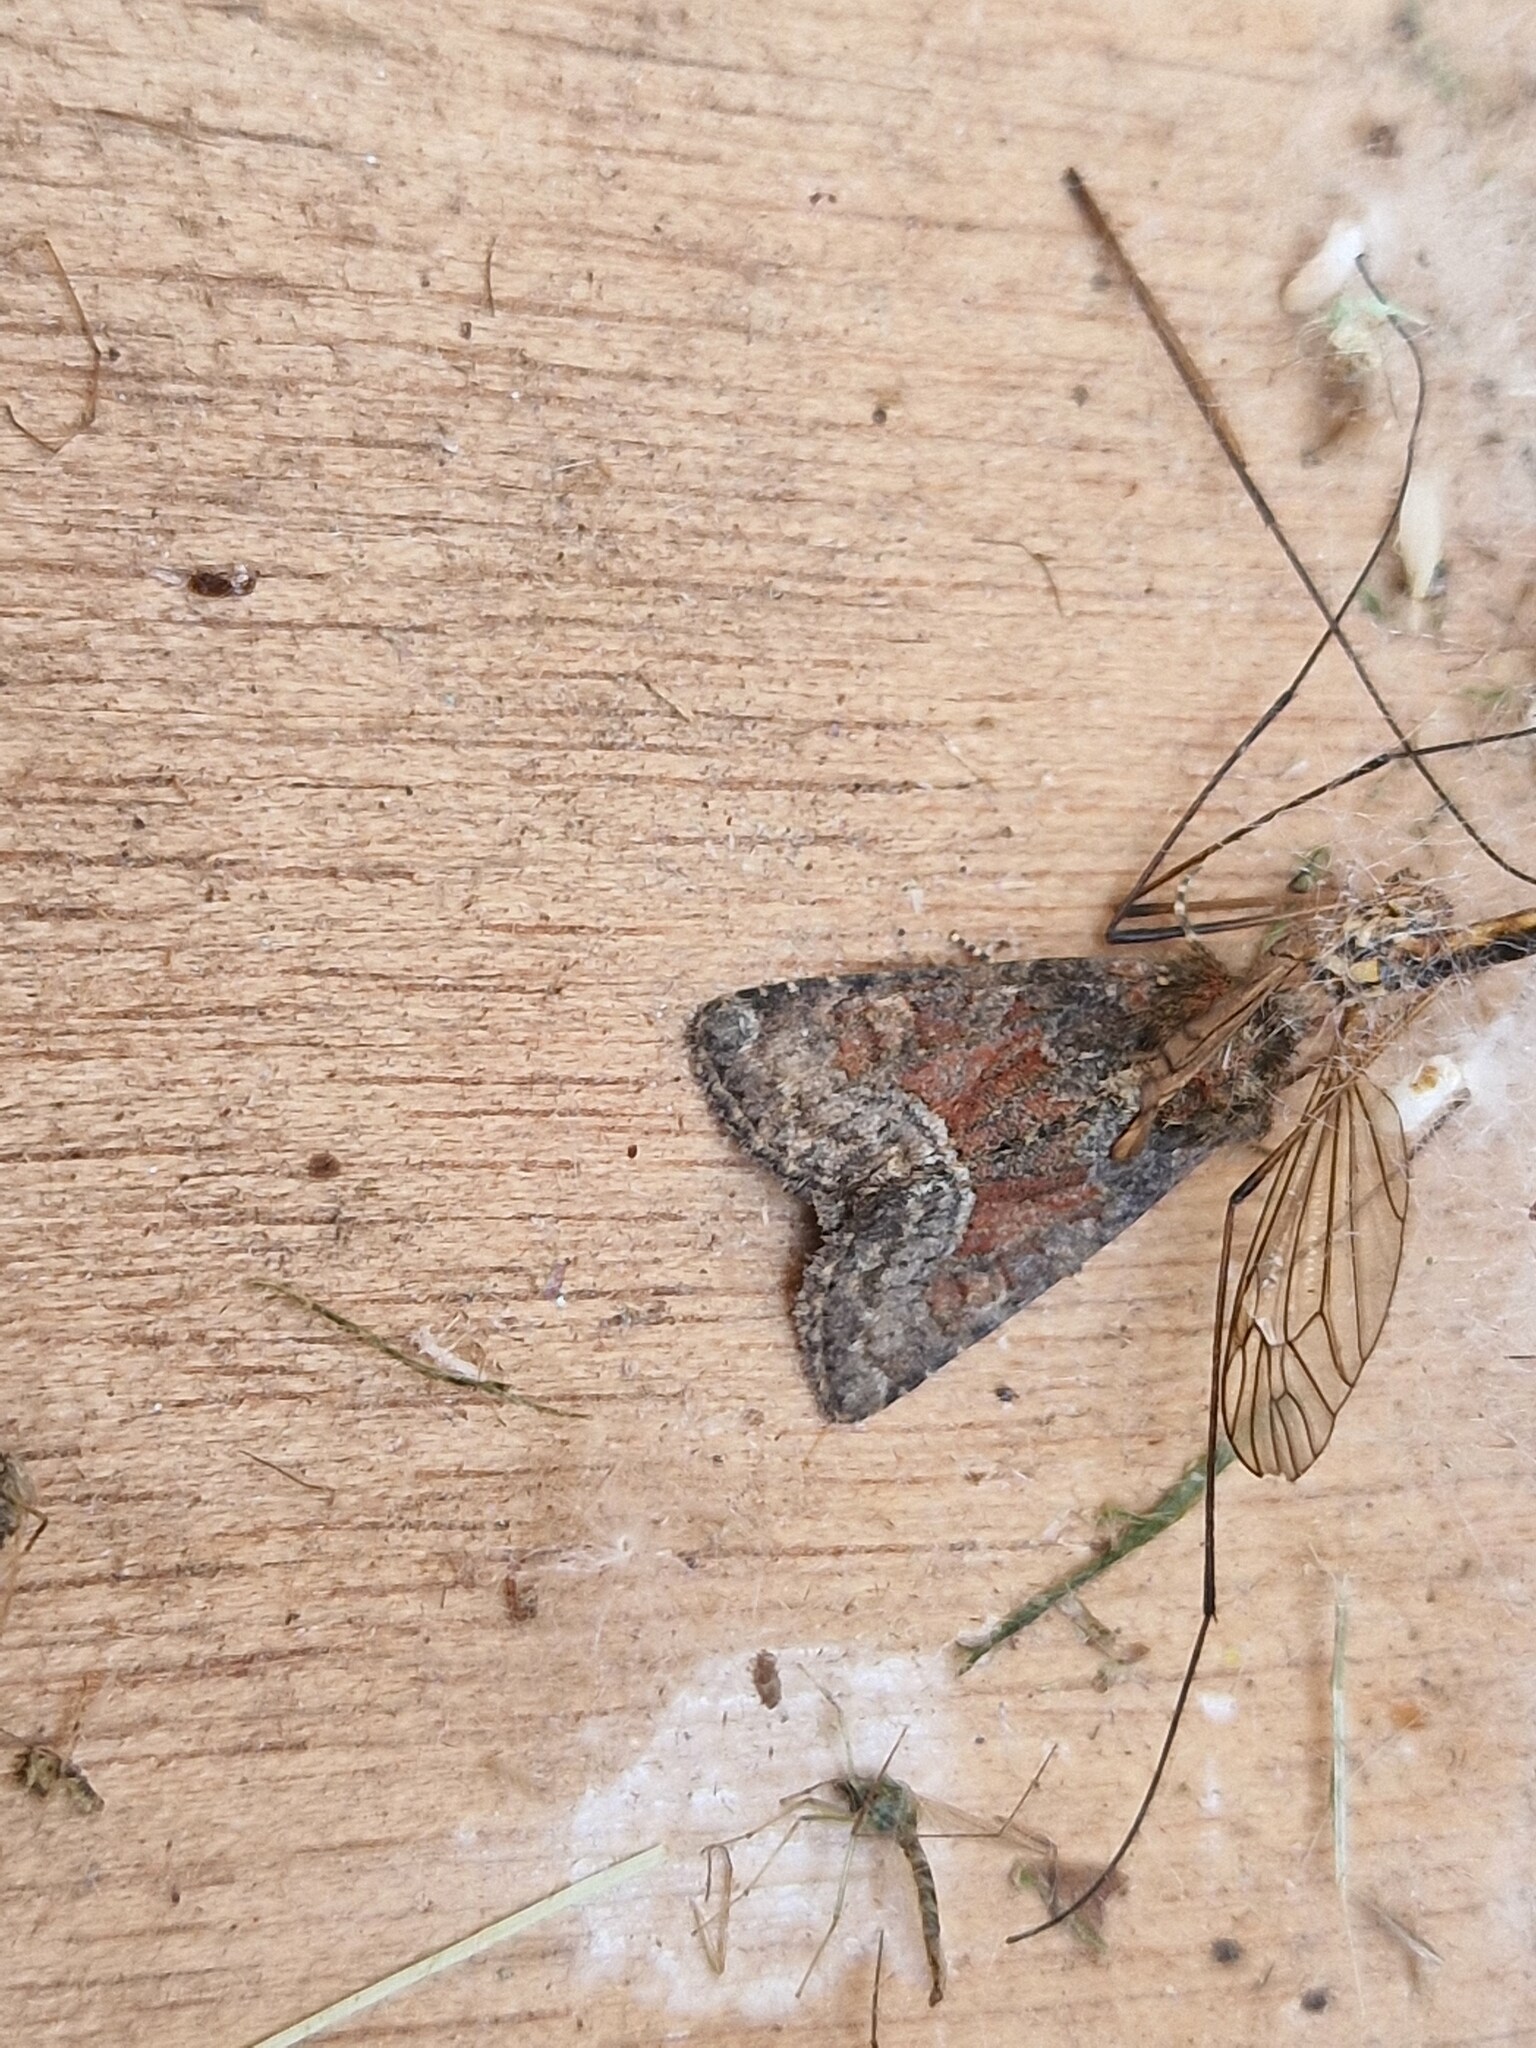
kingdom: Animalia
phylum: Arthropoda
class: Insecta
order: Lepidoptera
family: Noctuidae
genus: Oligia
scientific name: Oligia latruncula
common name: Tawny marbled minor
